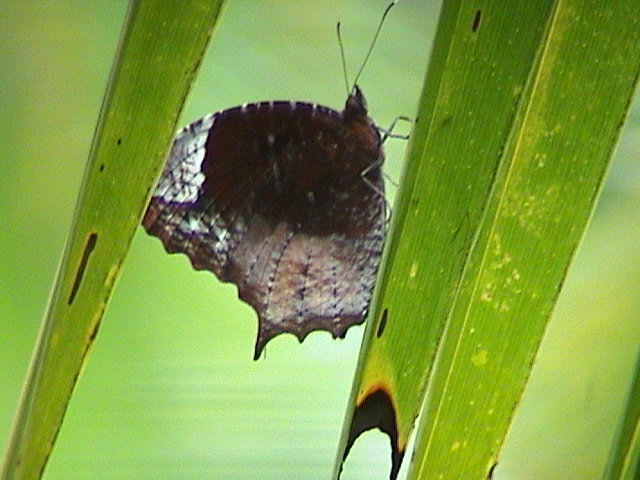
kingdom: Animalia
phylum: Arthropoda
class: Insecta
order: Lepidoptera
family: Nymphalidae
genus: Elymnias
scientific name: Elymnias caudata
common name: Tailed palmfly
